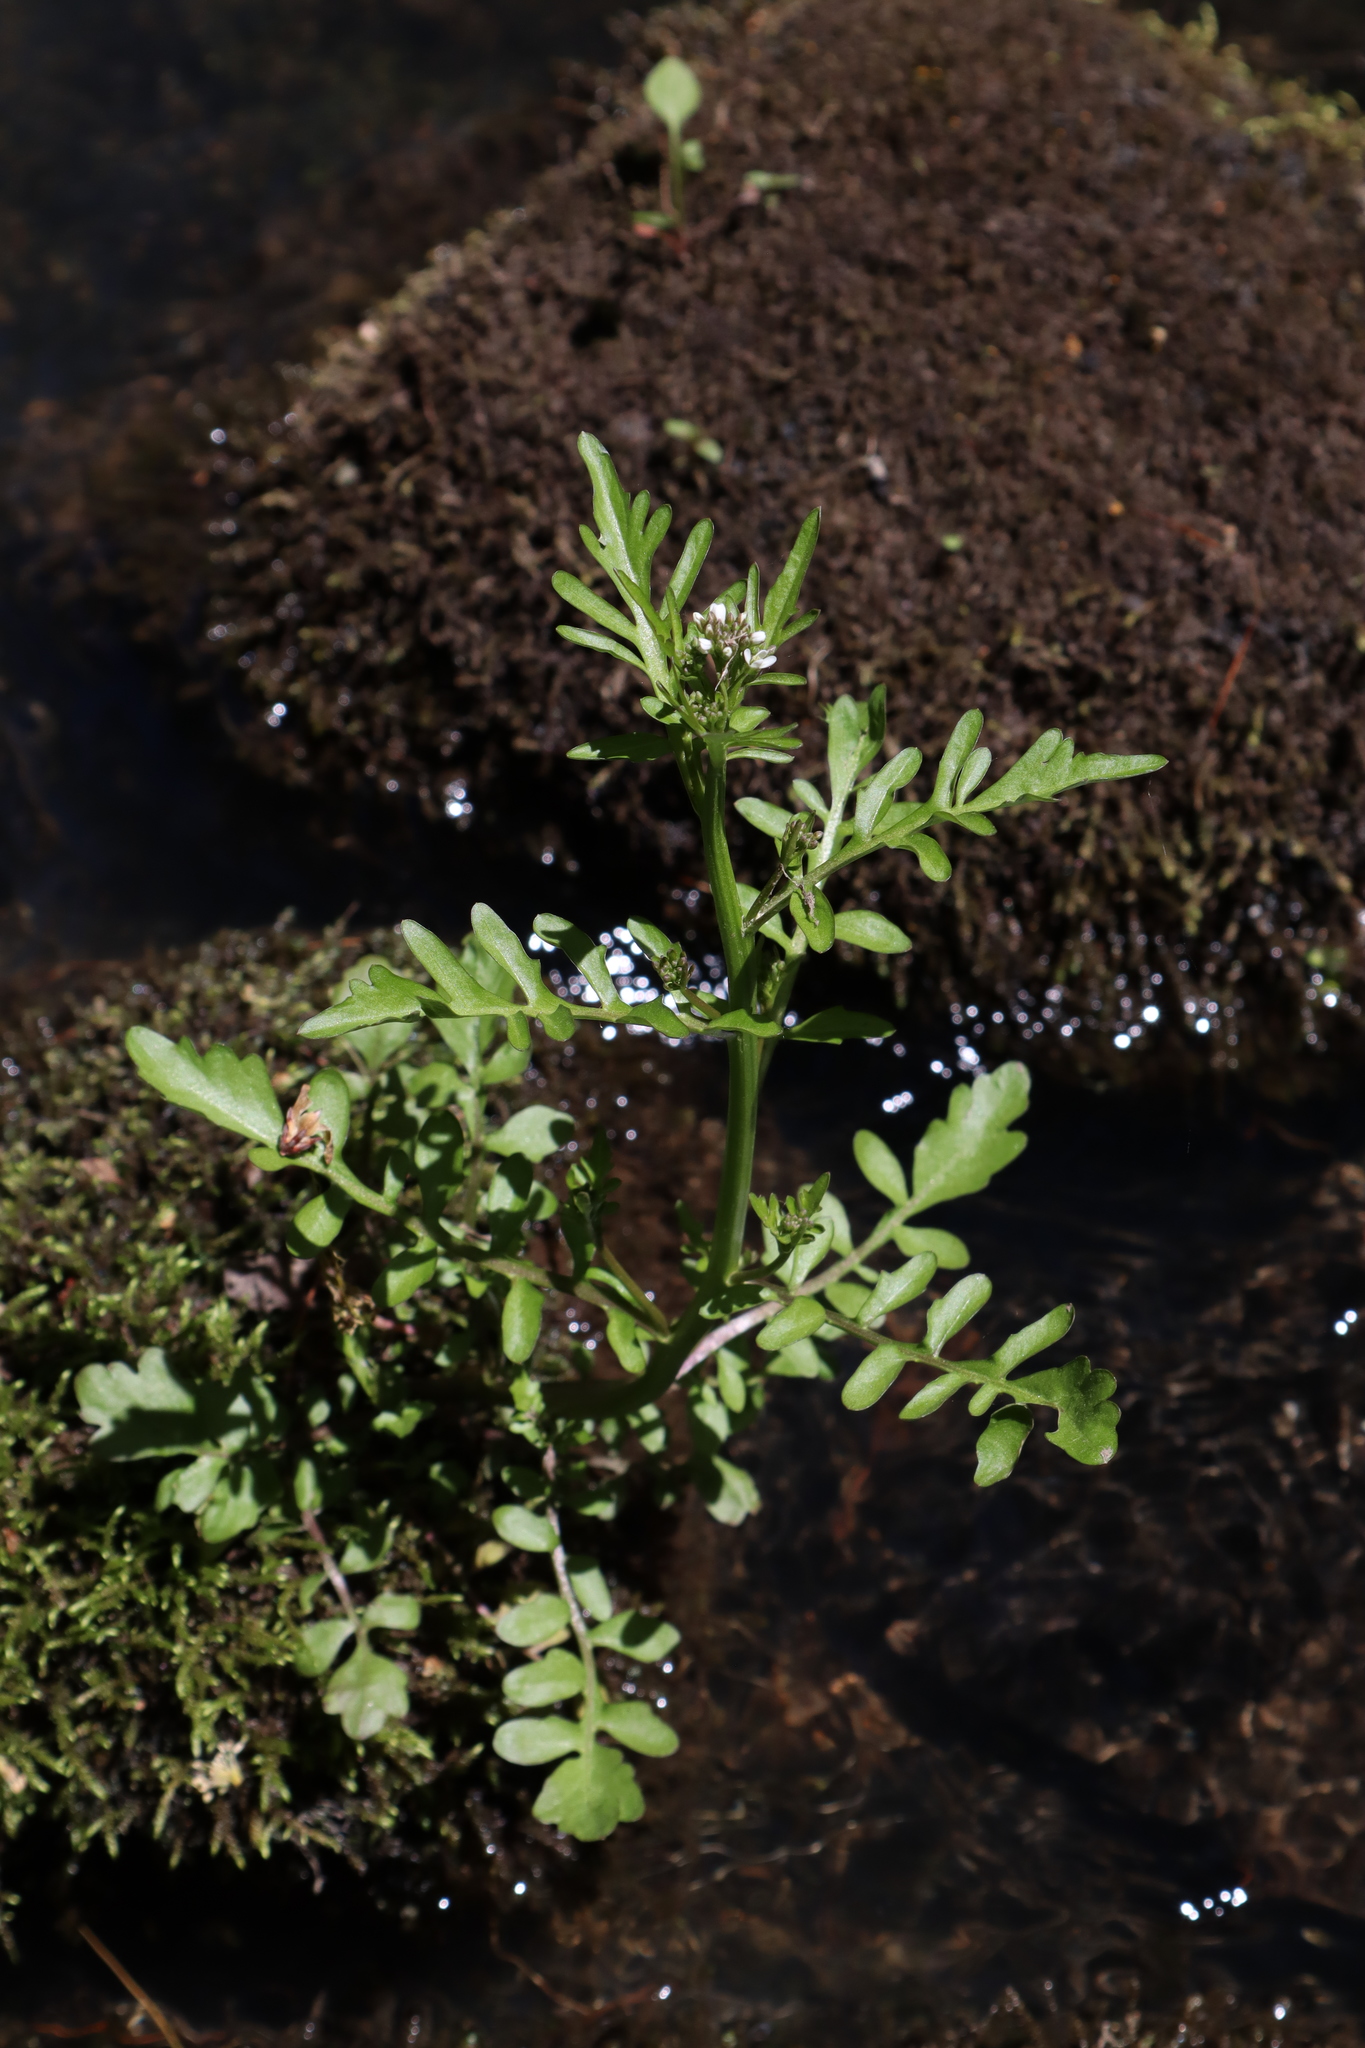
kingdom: Plantae
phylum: Tracheophyta
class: Magnoliopsida
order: Brassicales
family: Brassicaceae
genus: Cardamine
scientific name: Cardamine pensylvanica
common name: Pennsylvania bittercress
